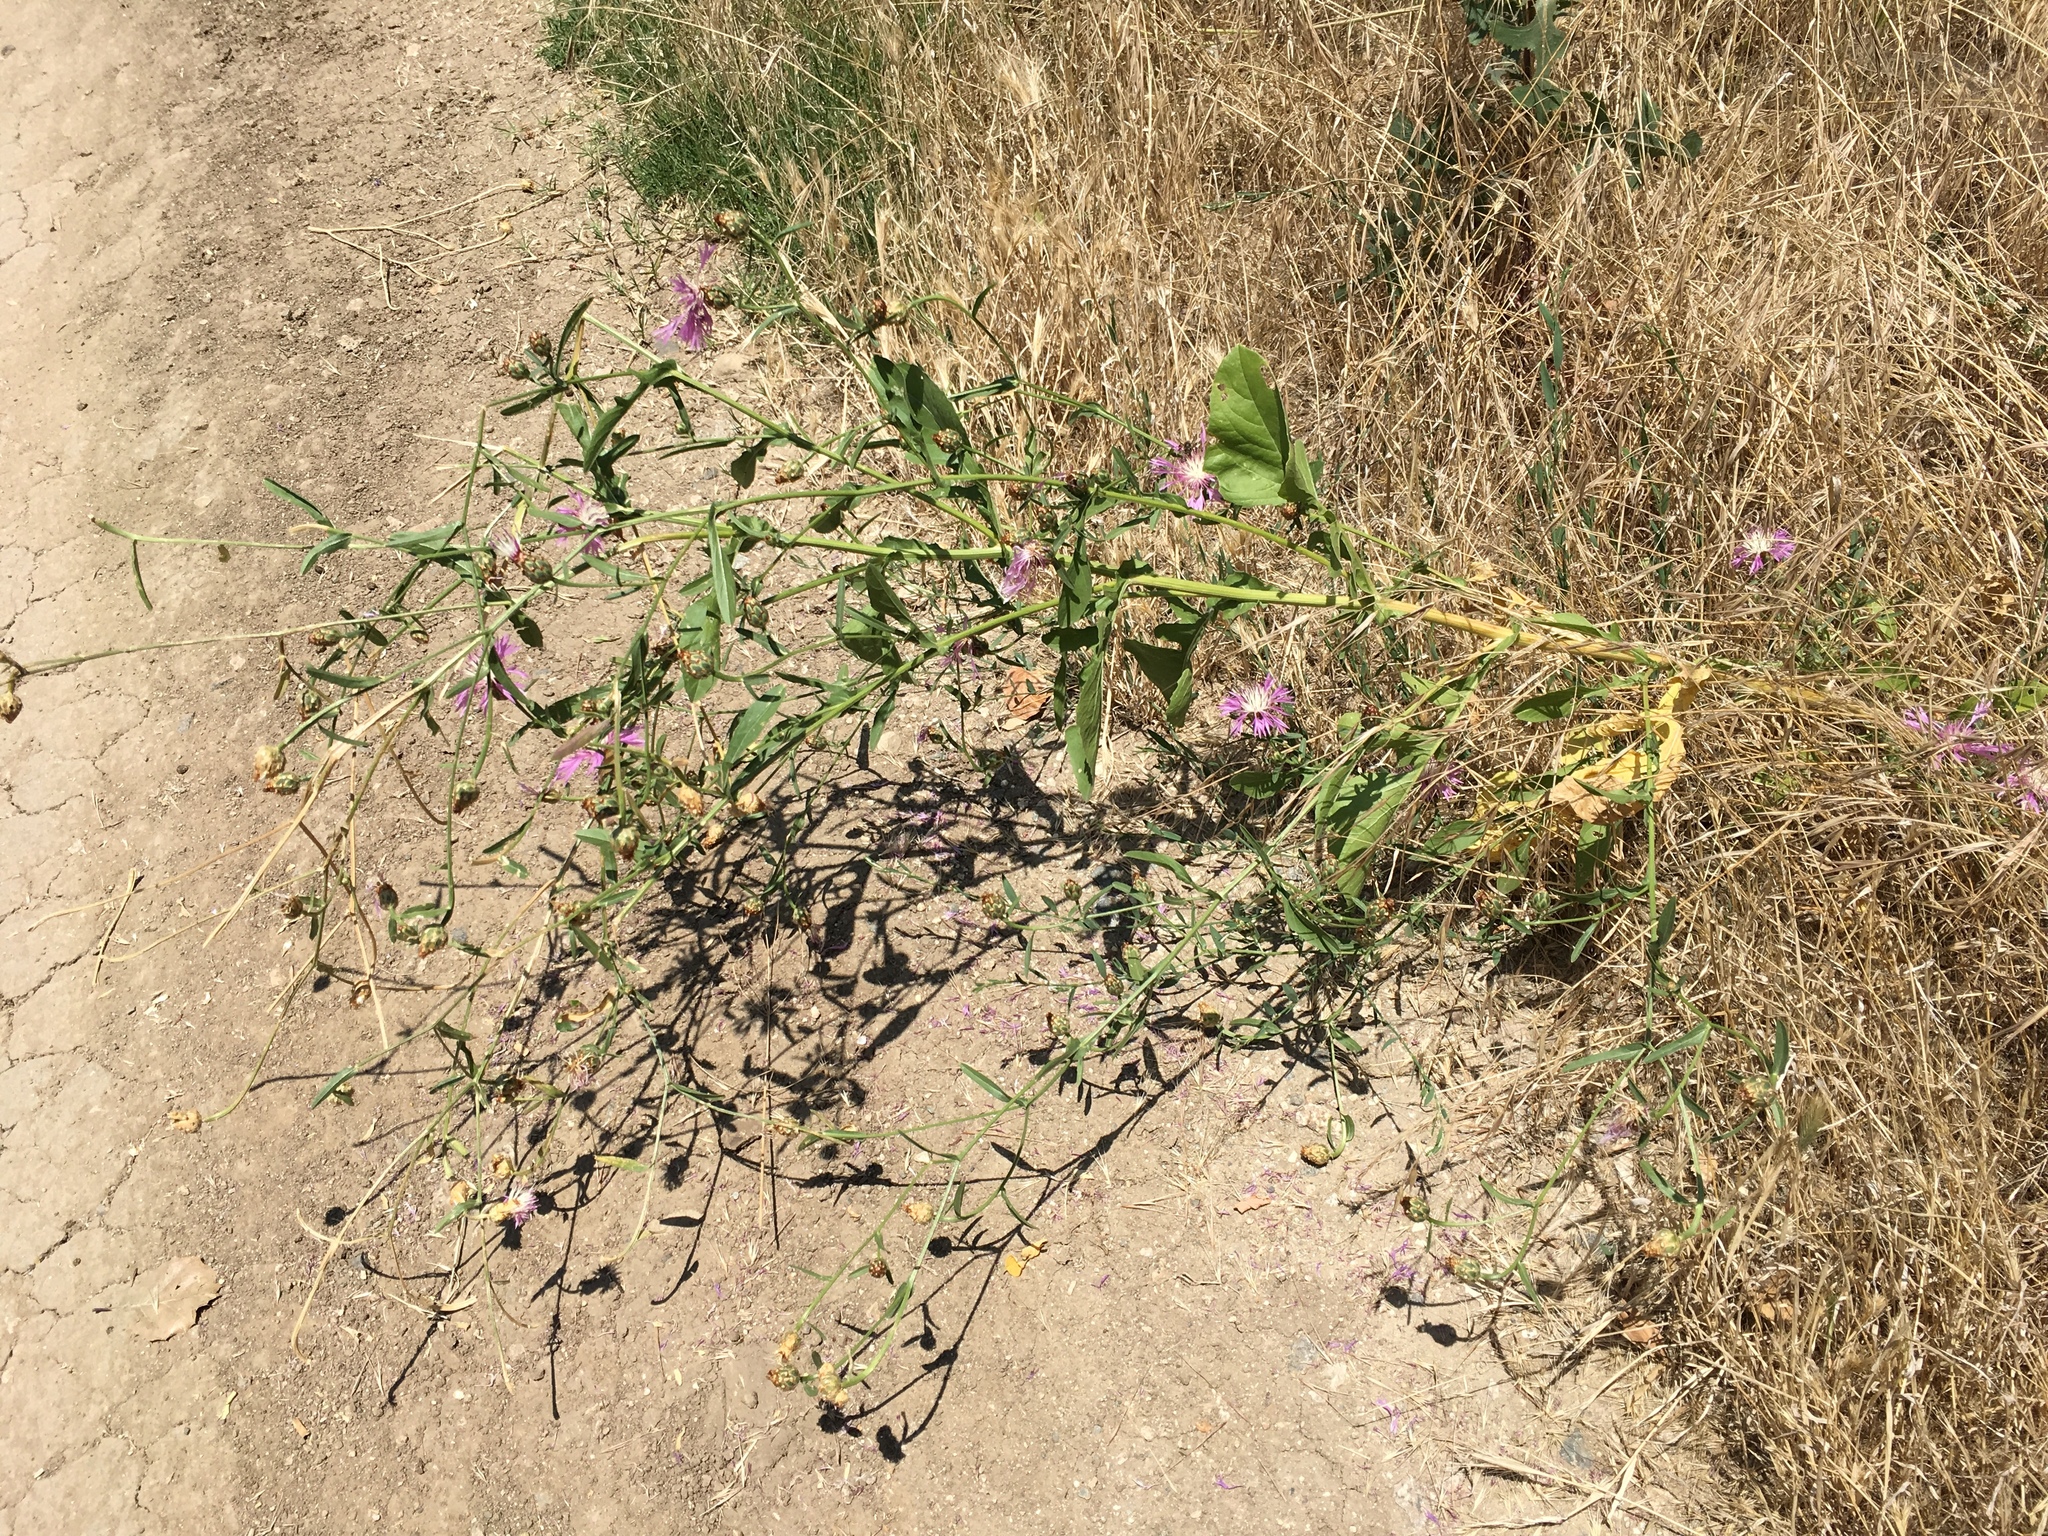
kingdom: Plantae
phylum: Tracheophyta
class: Magnoliopsida
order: Asterales
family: Asteraceae
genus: Centaurea
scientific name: Centaurea diluta
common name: Lesser star-thistle
